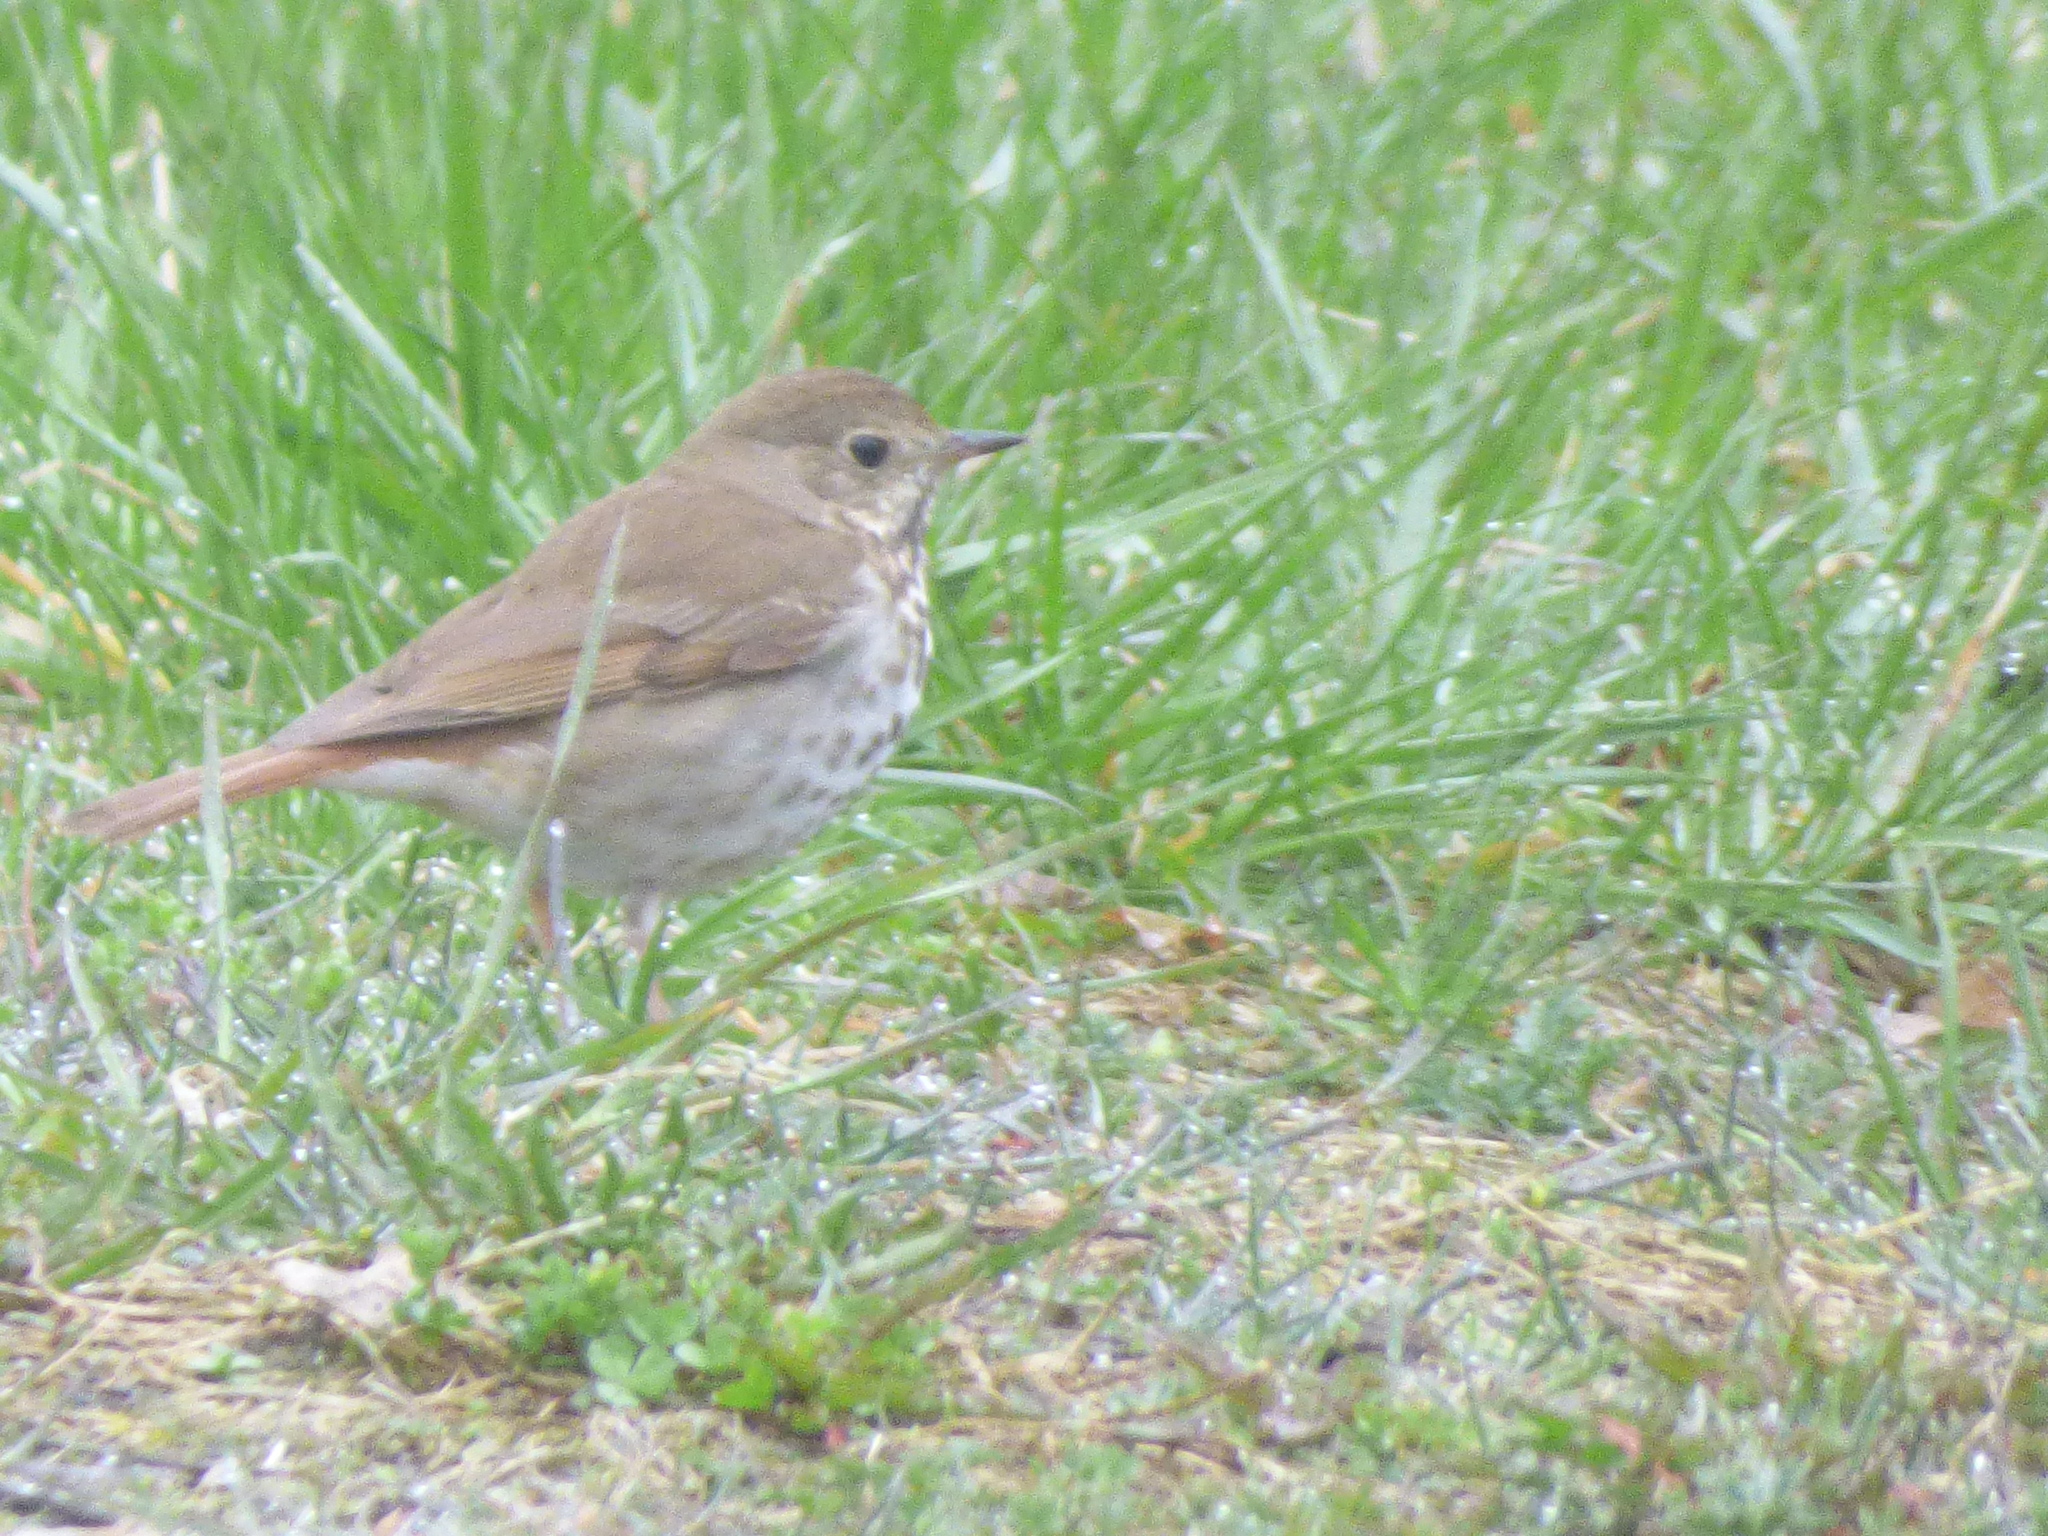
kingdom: Animalia
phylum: Chordata
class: Aves
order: Passeriformes
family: Turdidae
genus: Catharus
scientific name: Catharus guttatus
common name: Hermit thrush
